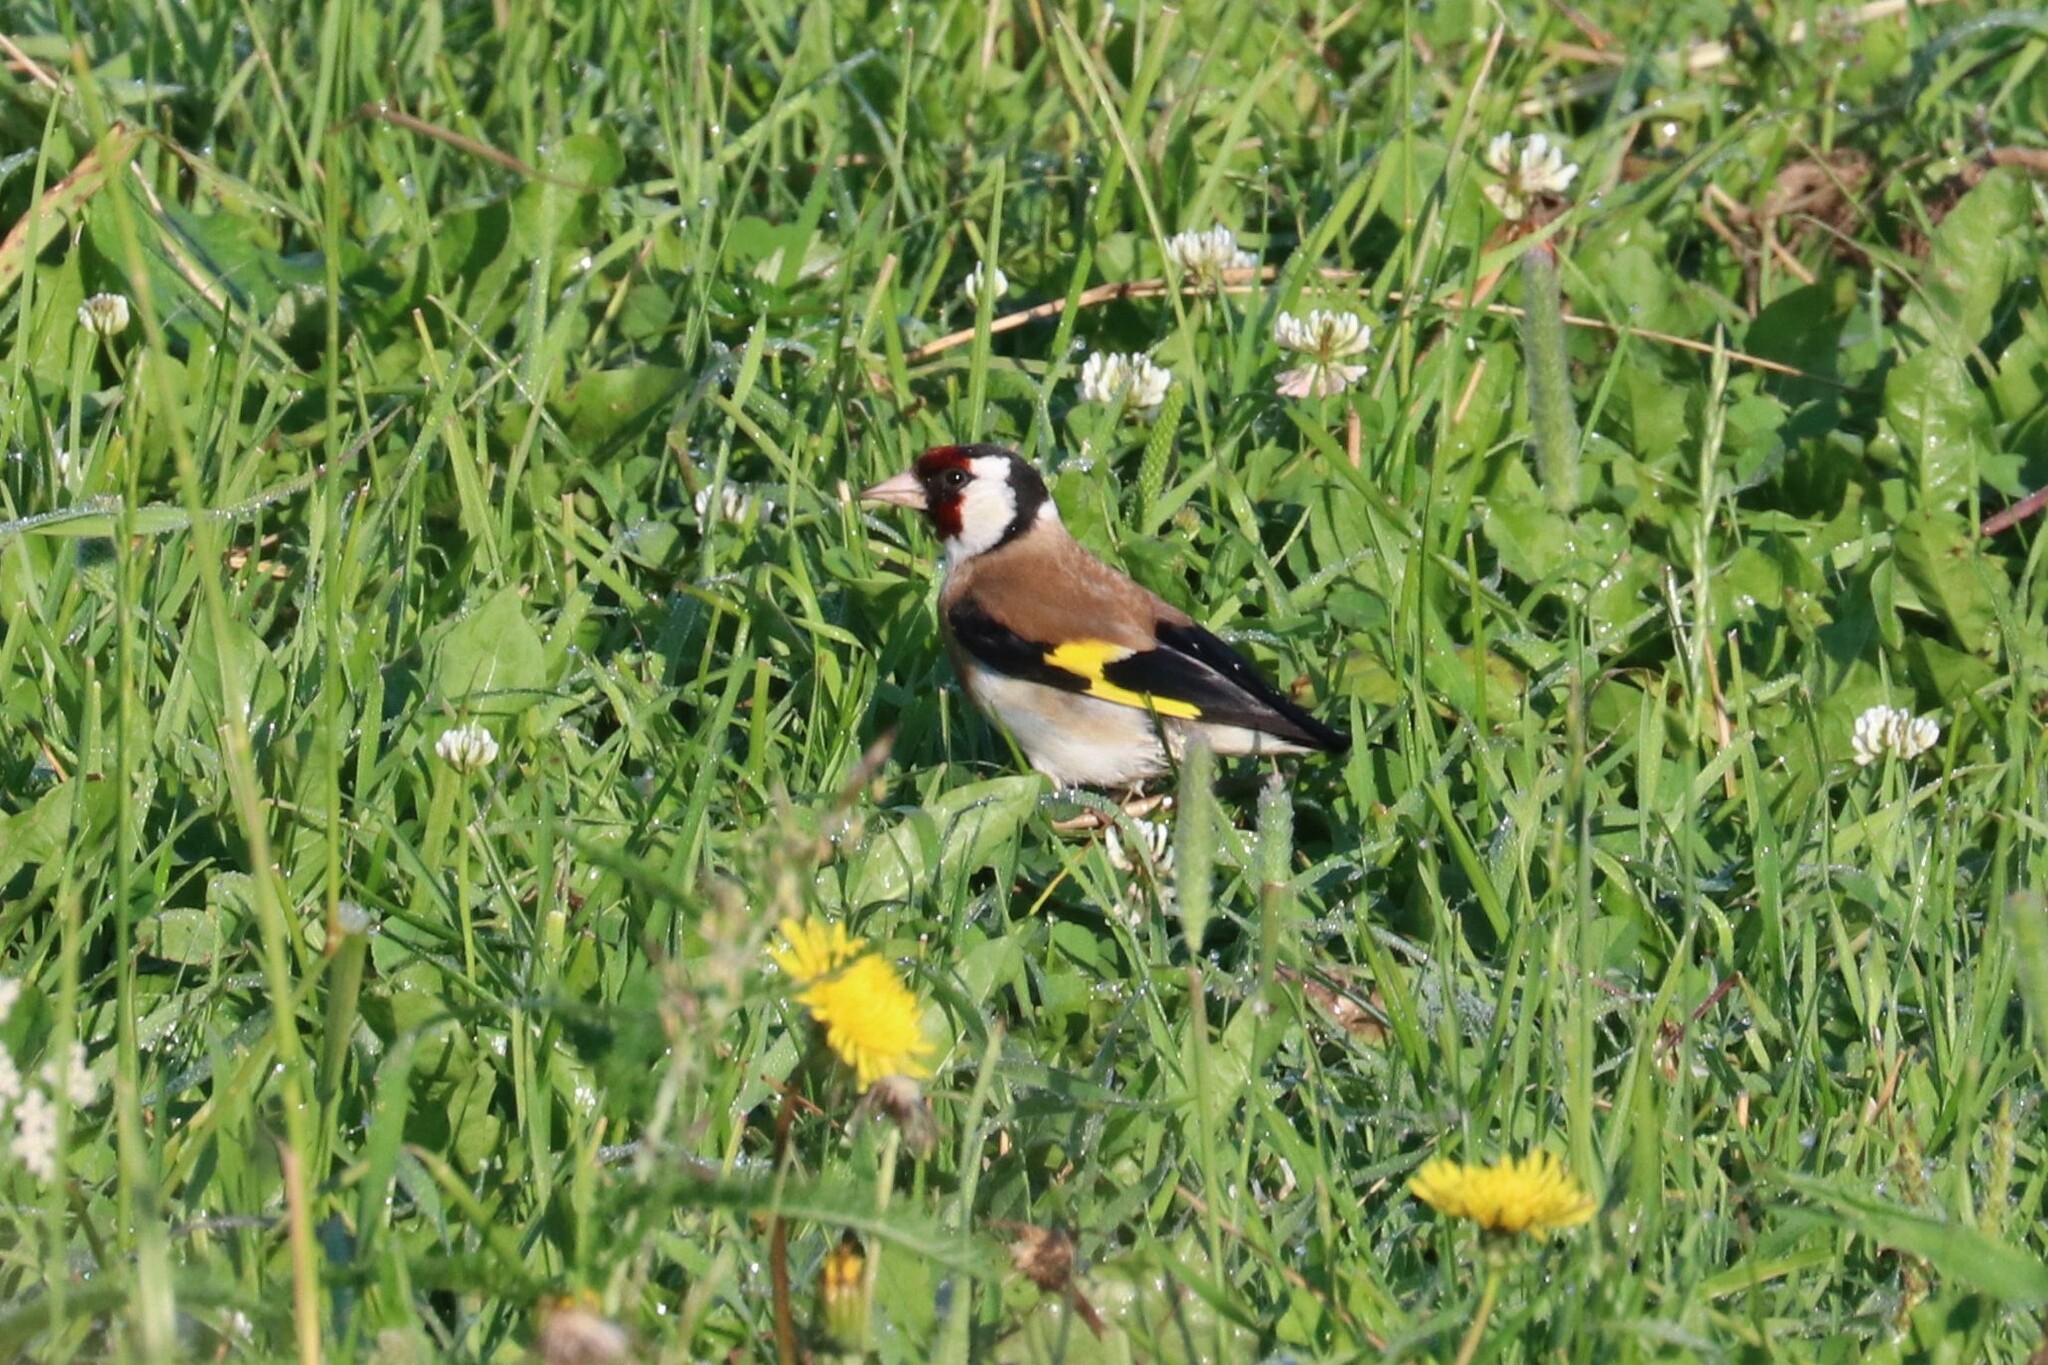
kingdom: Animalia
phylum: Chordata
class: Aves
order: Passeriformes
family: Fringillidae
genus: Carduelis
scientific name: Carduelis carduelis
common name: European goldfinch
